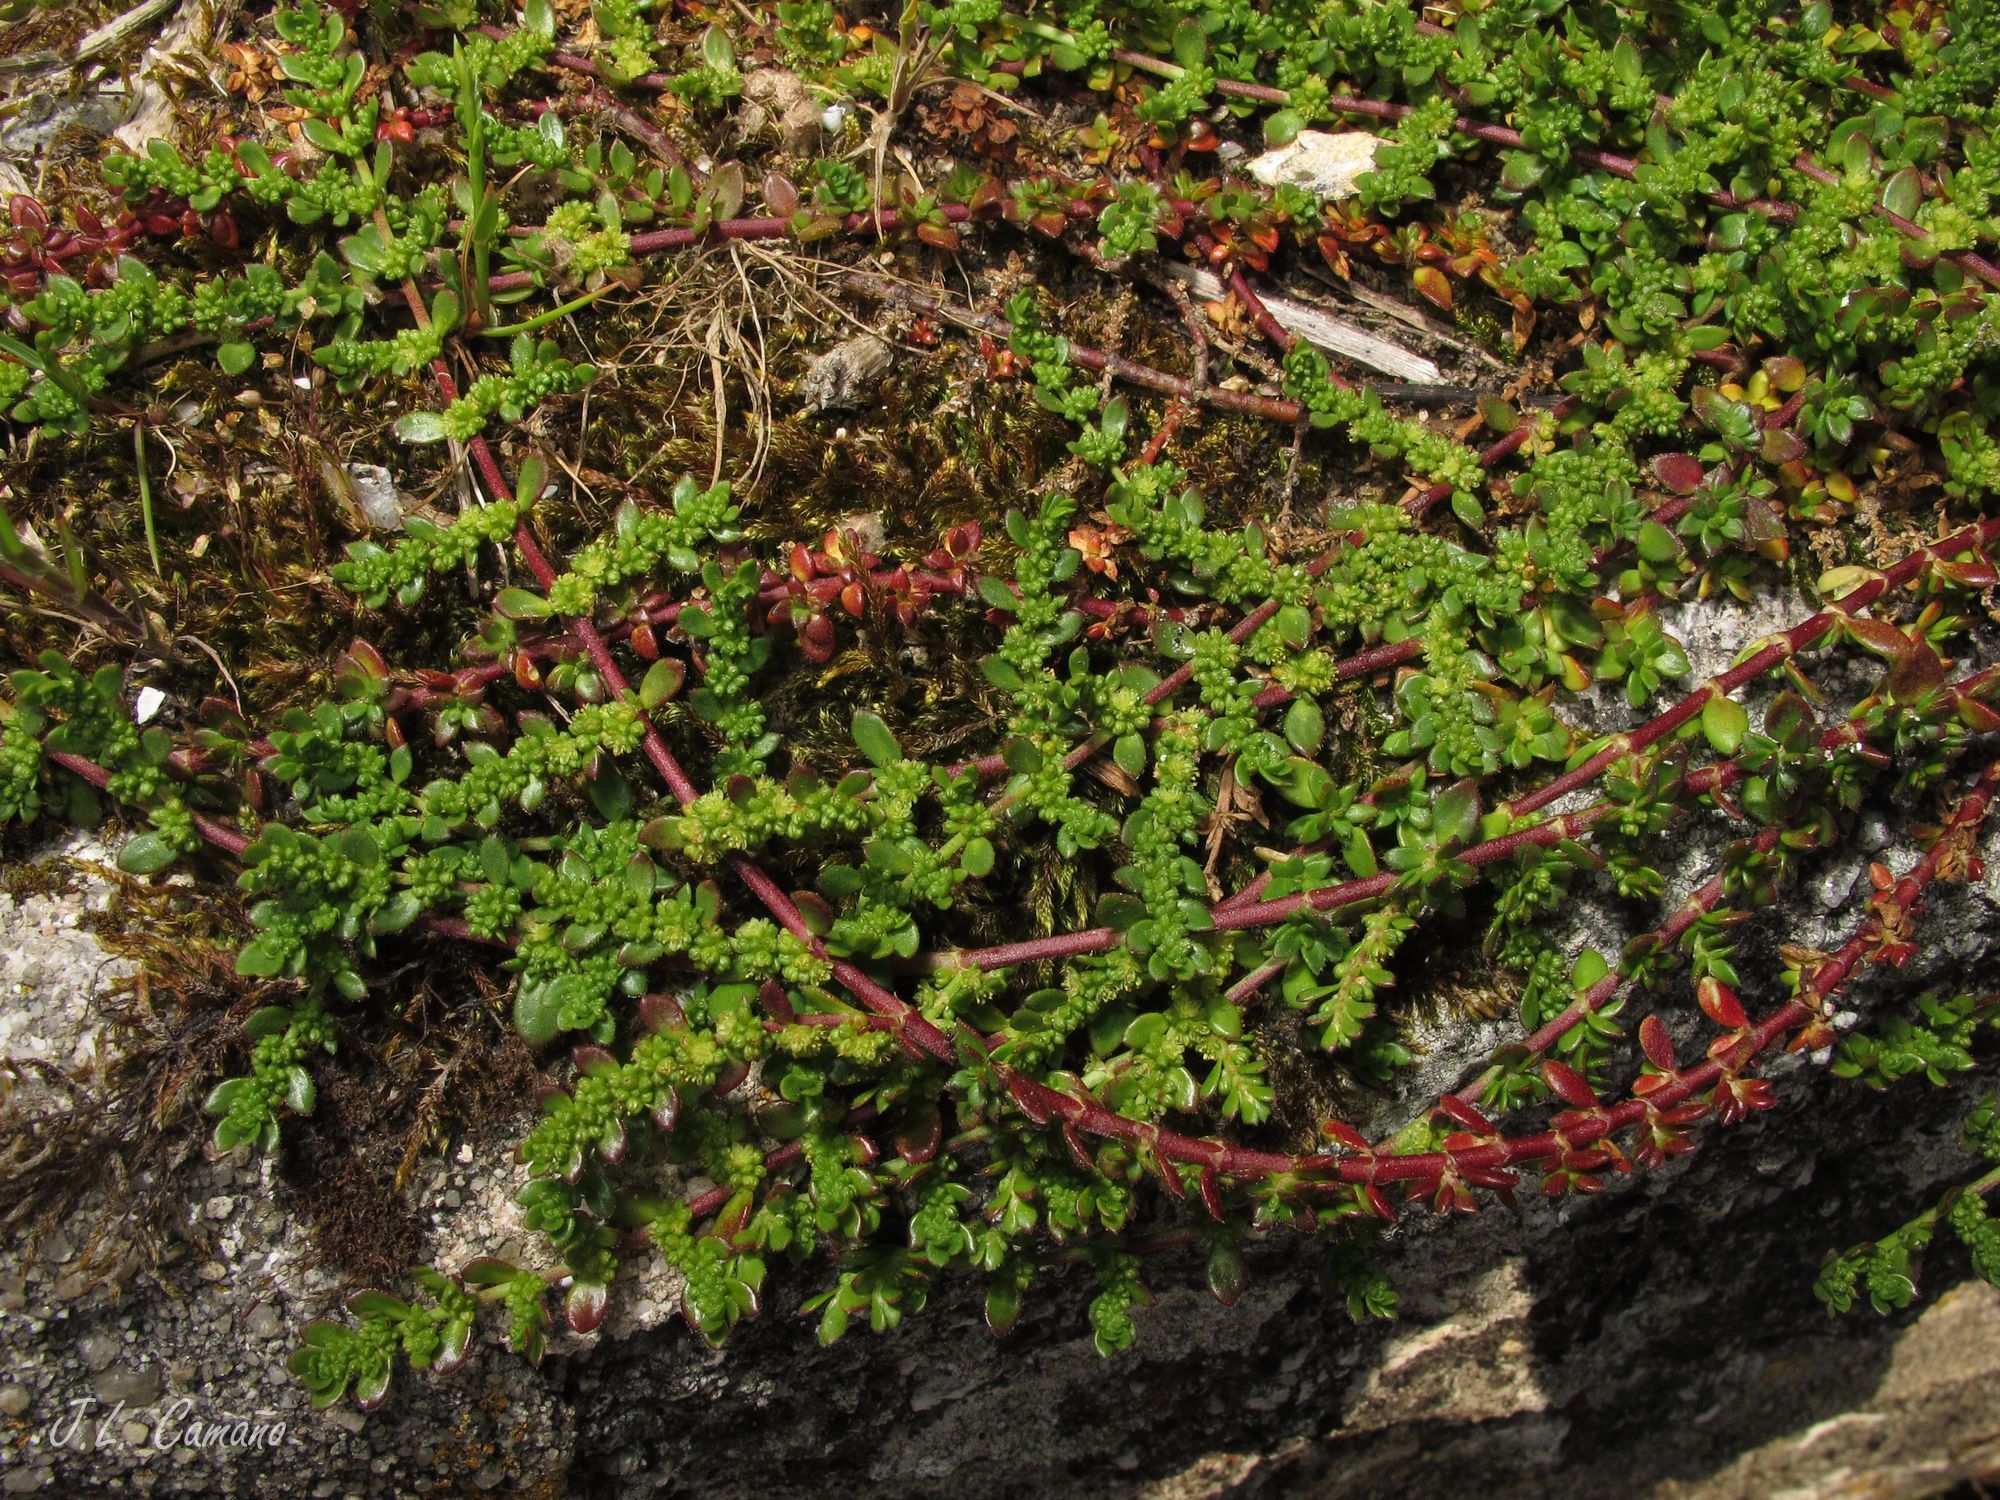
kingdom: Plantae
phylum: Tracheophyta
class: Magnoliopsida
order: Caryophyllales
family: Caryophyllaceae
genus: Herniaria
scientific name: Herniaria ciliolata
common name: Fringed rupture-wort
